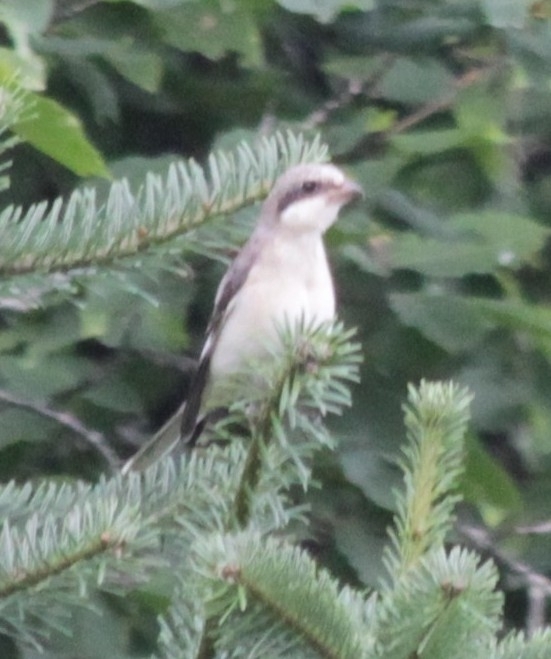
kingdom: Animalia
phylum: Chordata
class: Aves
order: Passeriformes
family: Laniidae
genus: Lanius
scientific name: Lanius minor
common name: Lesser grey shrike
